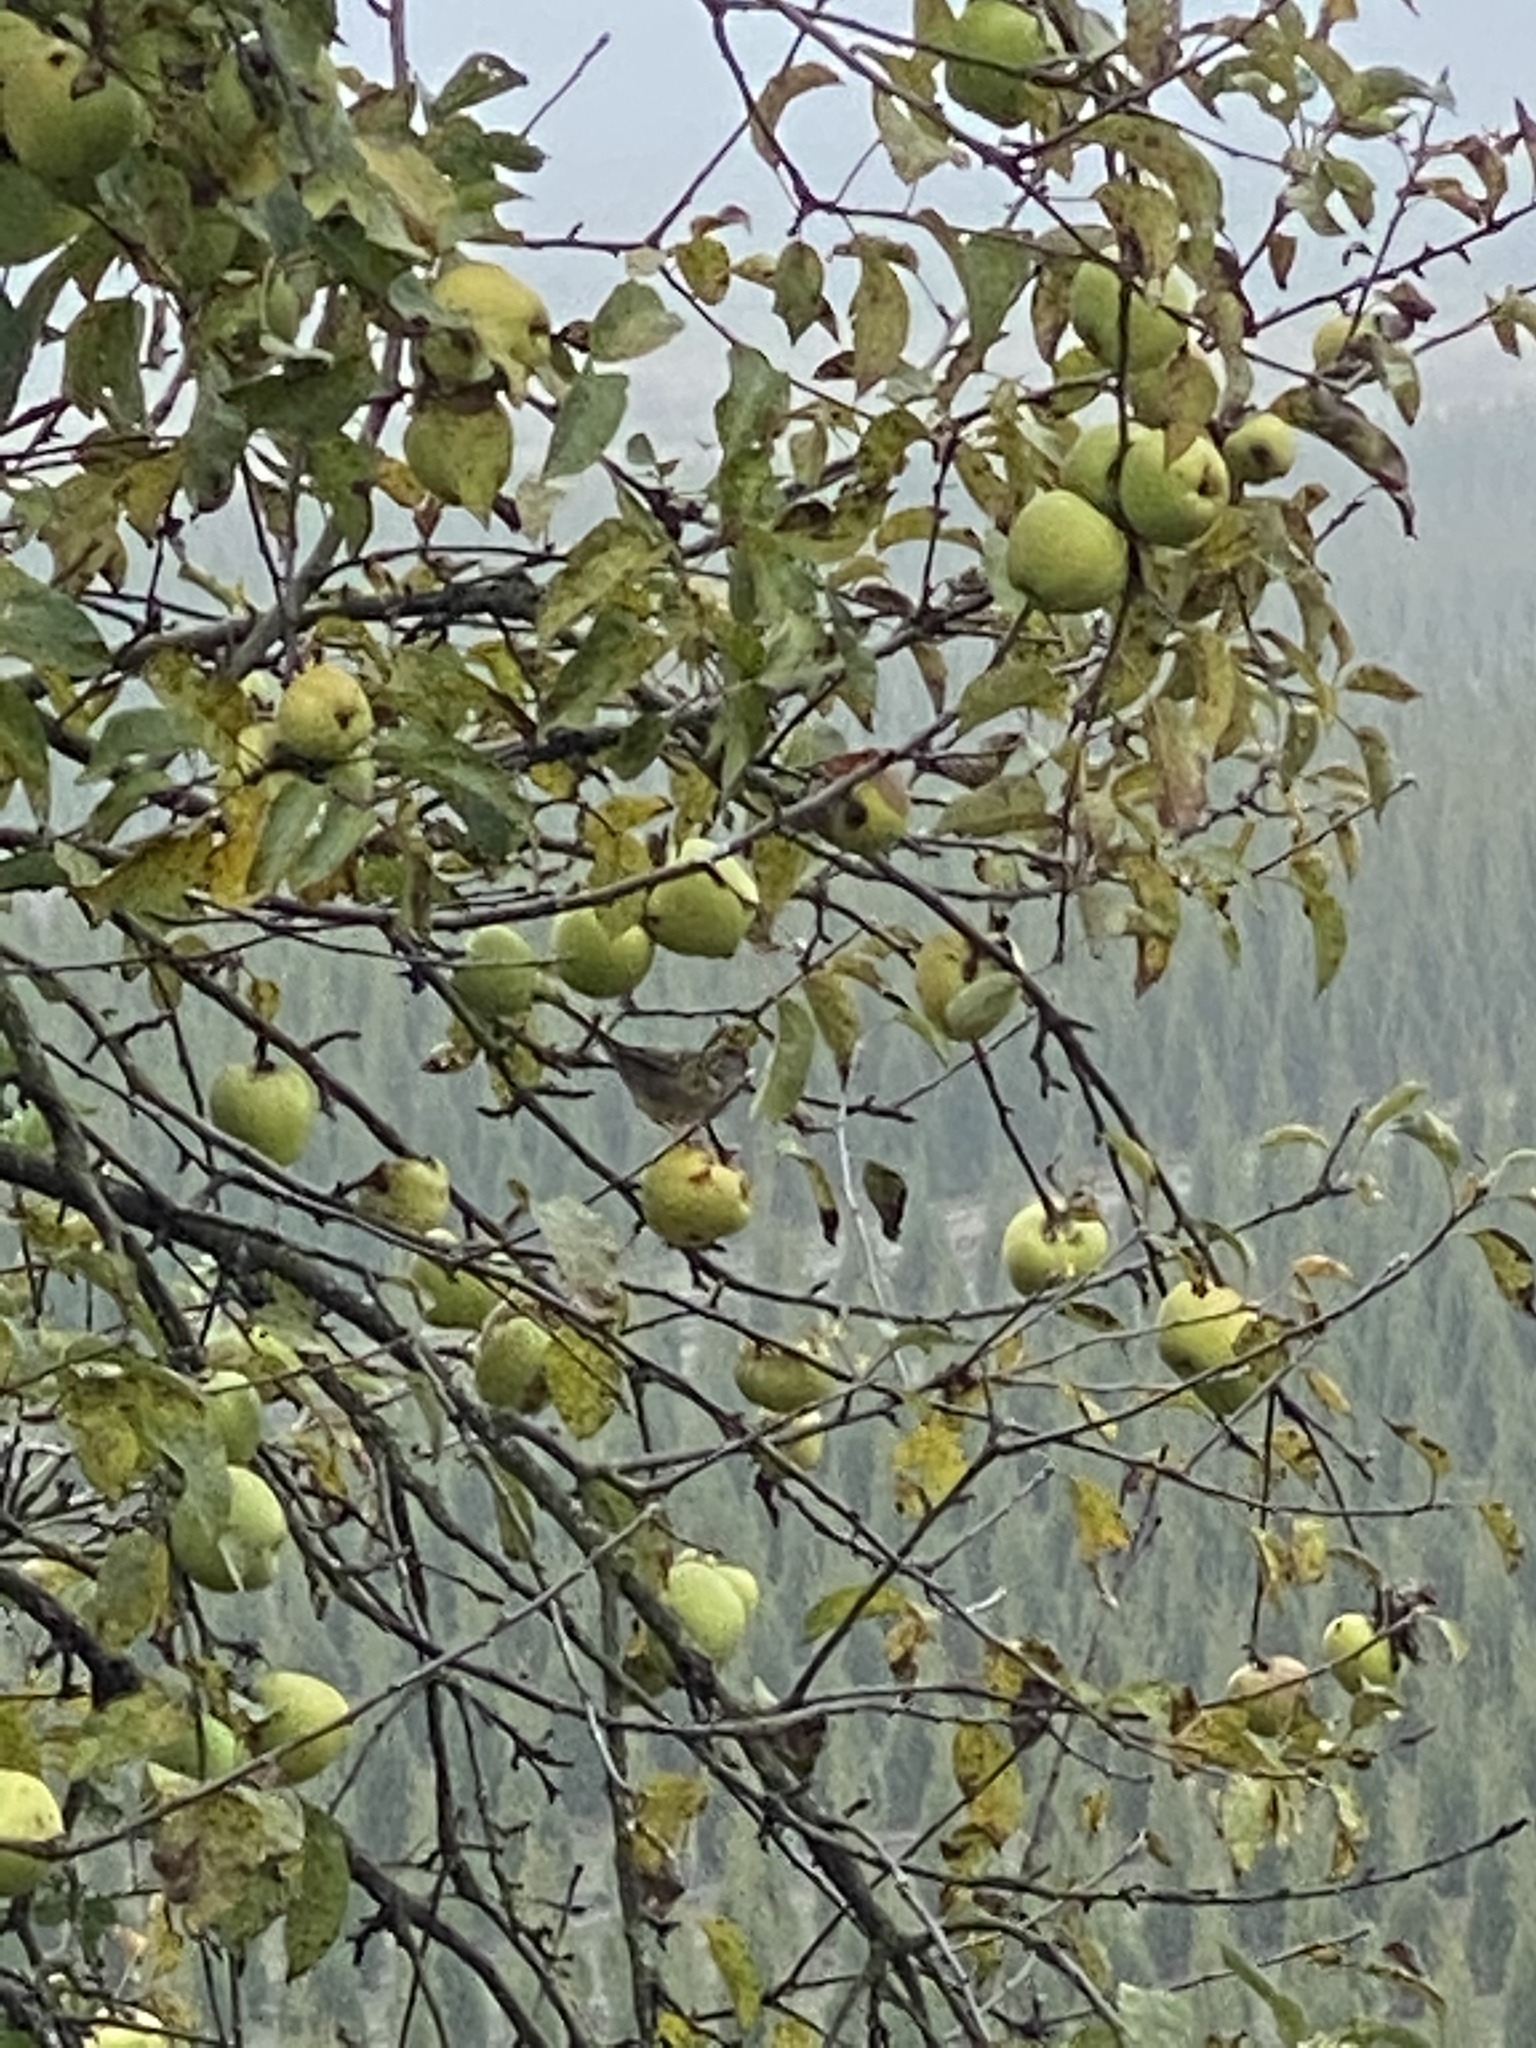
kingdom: Animalia
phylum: Chordata
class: Aves
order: Passeriformes
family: Passerellidae
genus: Zonotrichia
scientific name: Zonotrichia atricapilla
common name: Golden-crowned sparrow
